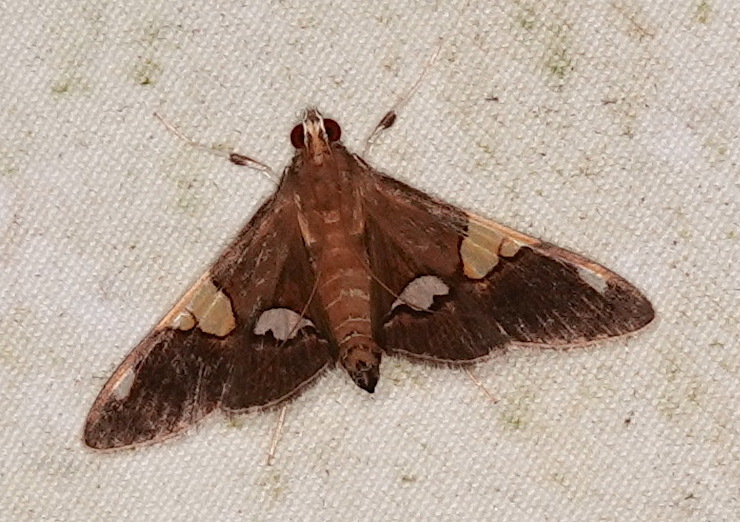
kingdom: Animalia
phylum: Arthropoda
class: Insecta
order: Lepidoptera
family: Crambidae
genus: Heterocnephes
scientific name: Heterocnephes lymphatalis
